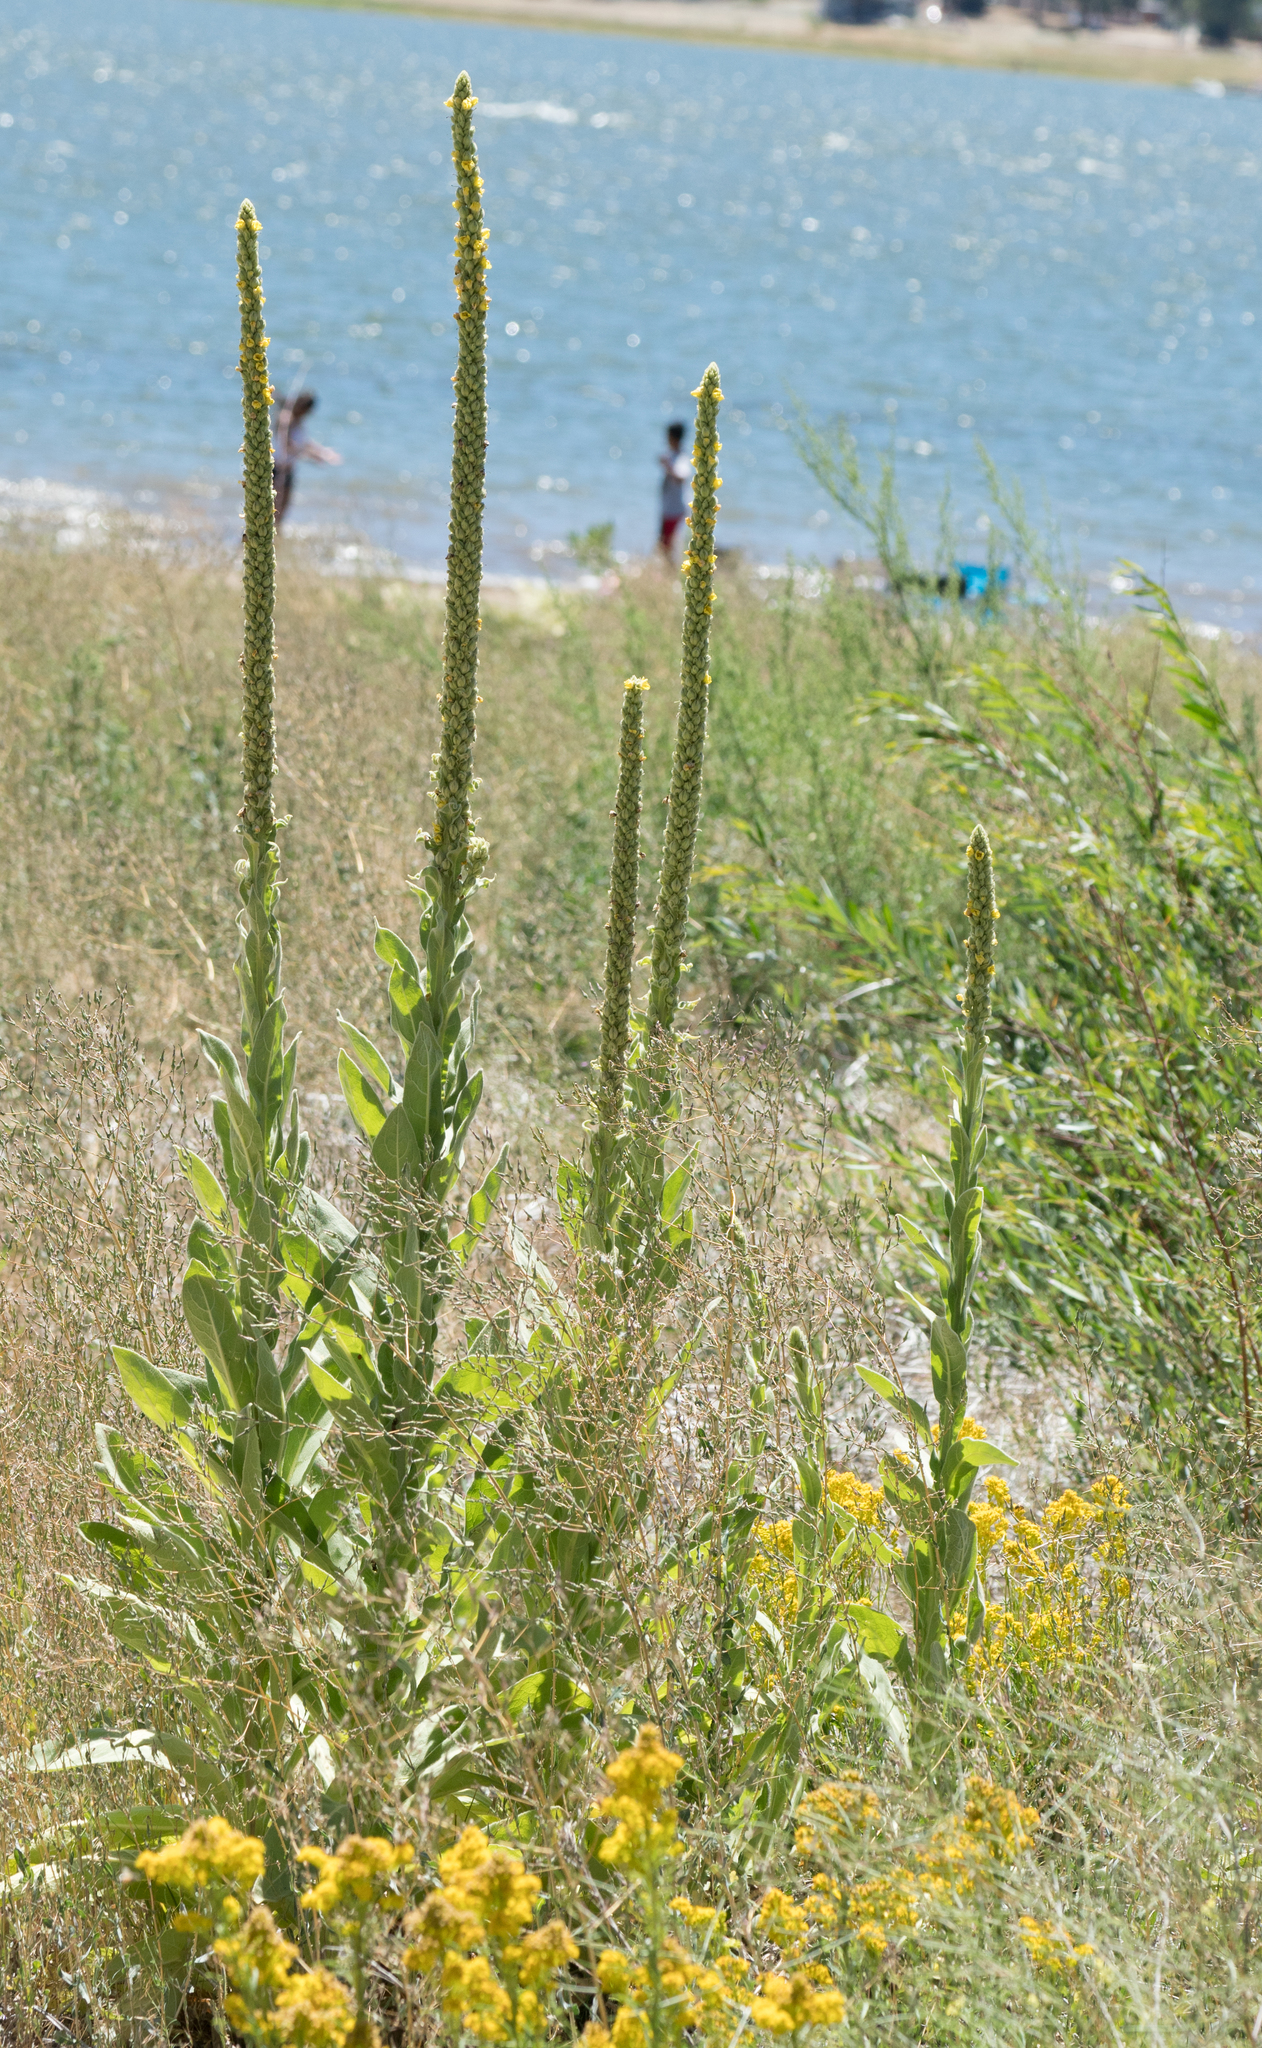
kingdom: Plantae
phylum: Tracheophyta
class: Magnoliopsida
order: Lamiales
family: Scrophulariaceae
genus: Verbascum
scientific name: Verbascum thapsus
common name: Common mullein
